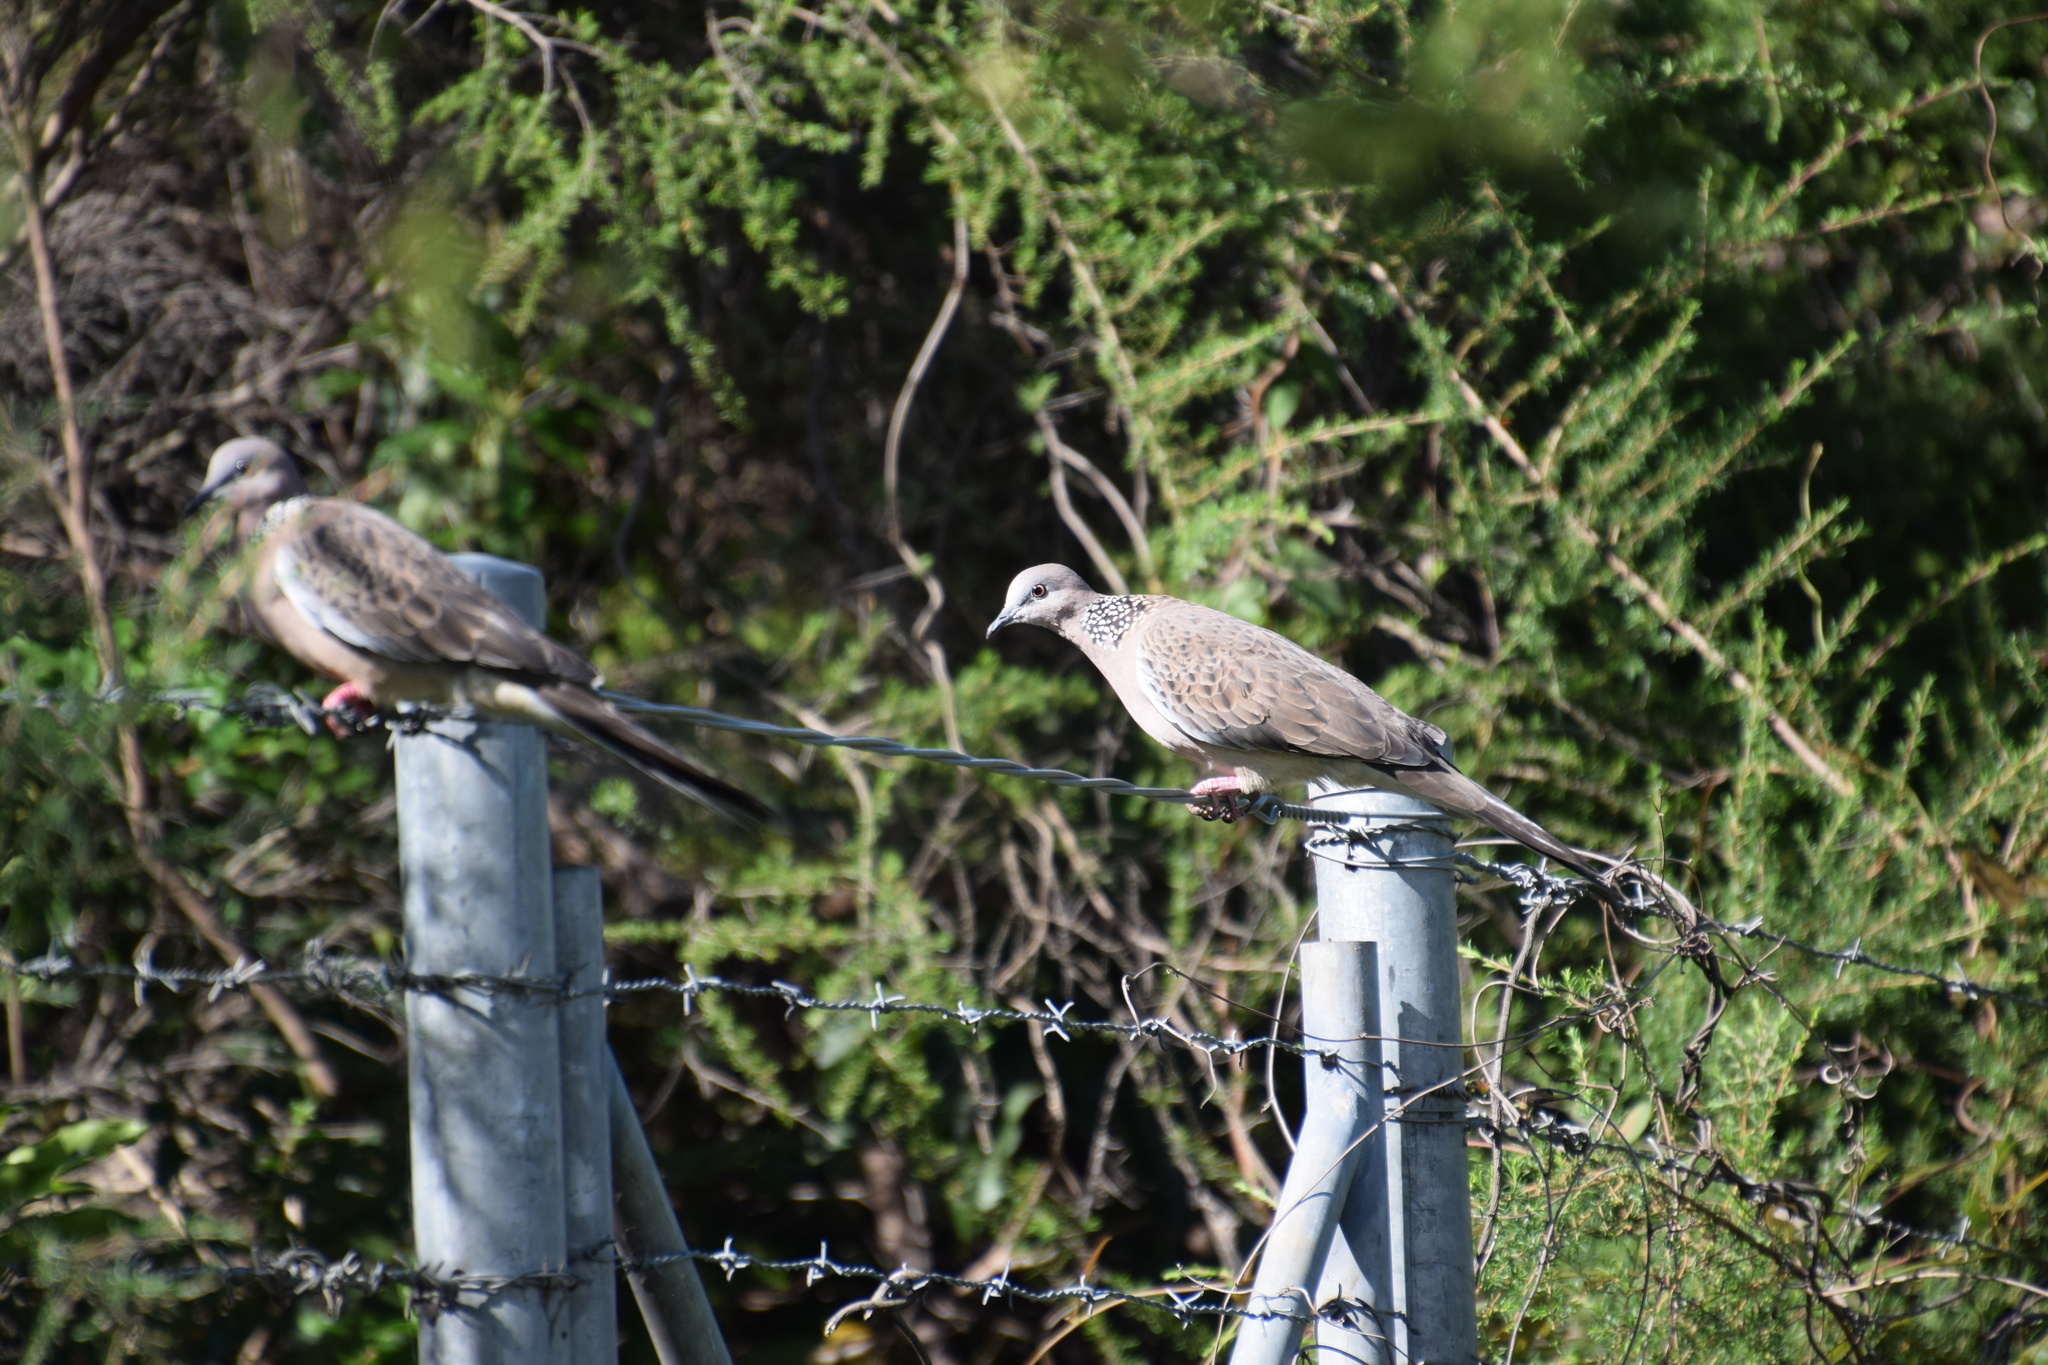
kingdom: Animalia
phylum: Chordata
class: Aves
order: Columbiformes
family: Columbidae
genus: Spilopelia
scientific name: Spilopelia chinensis
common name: Spotted dove
